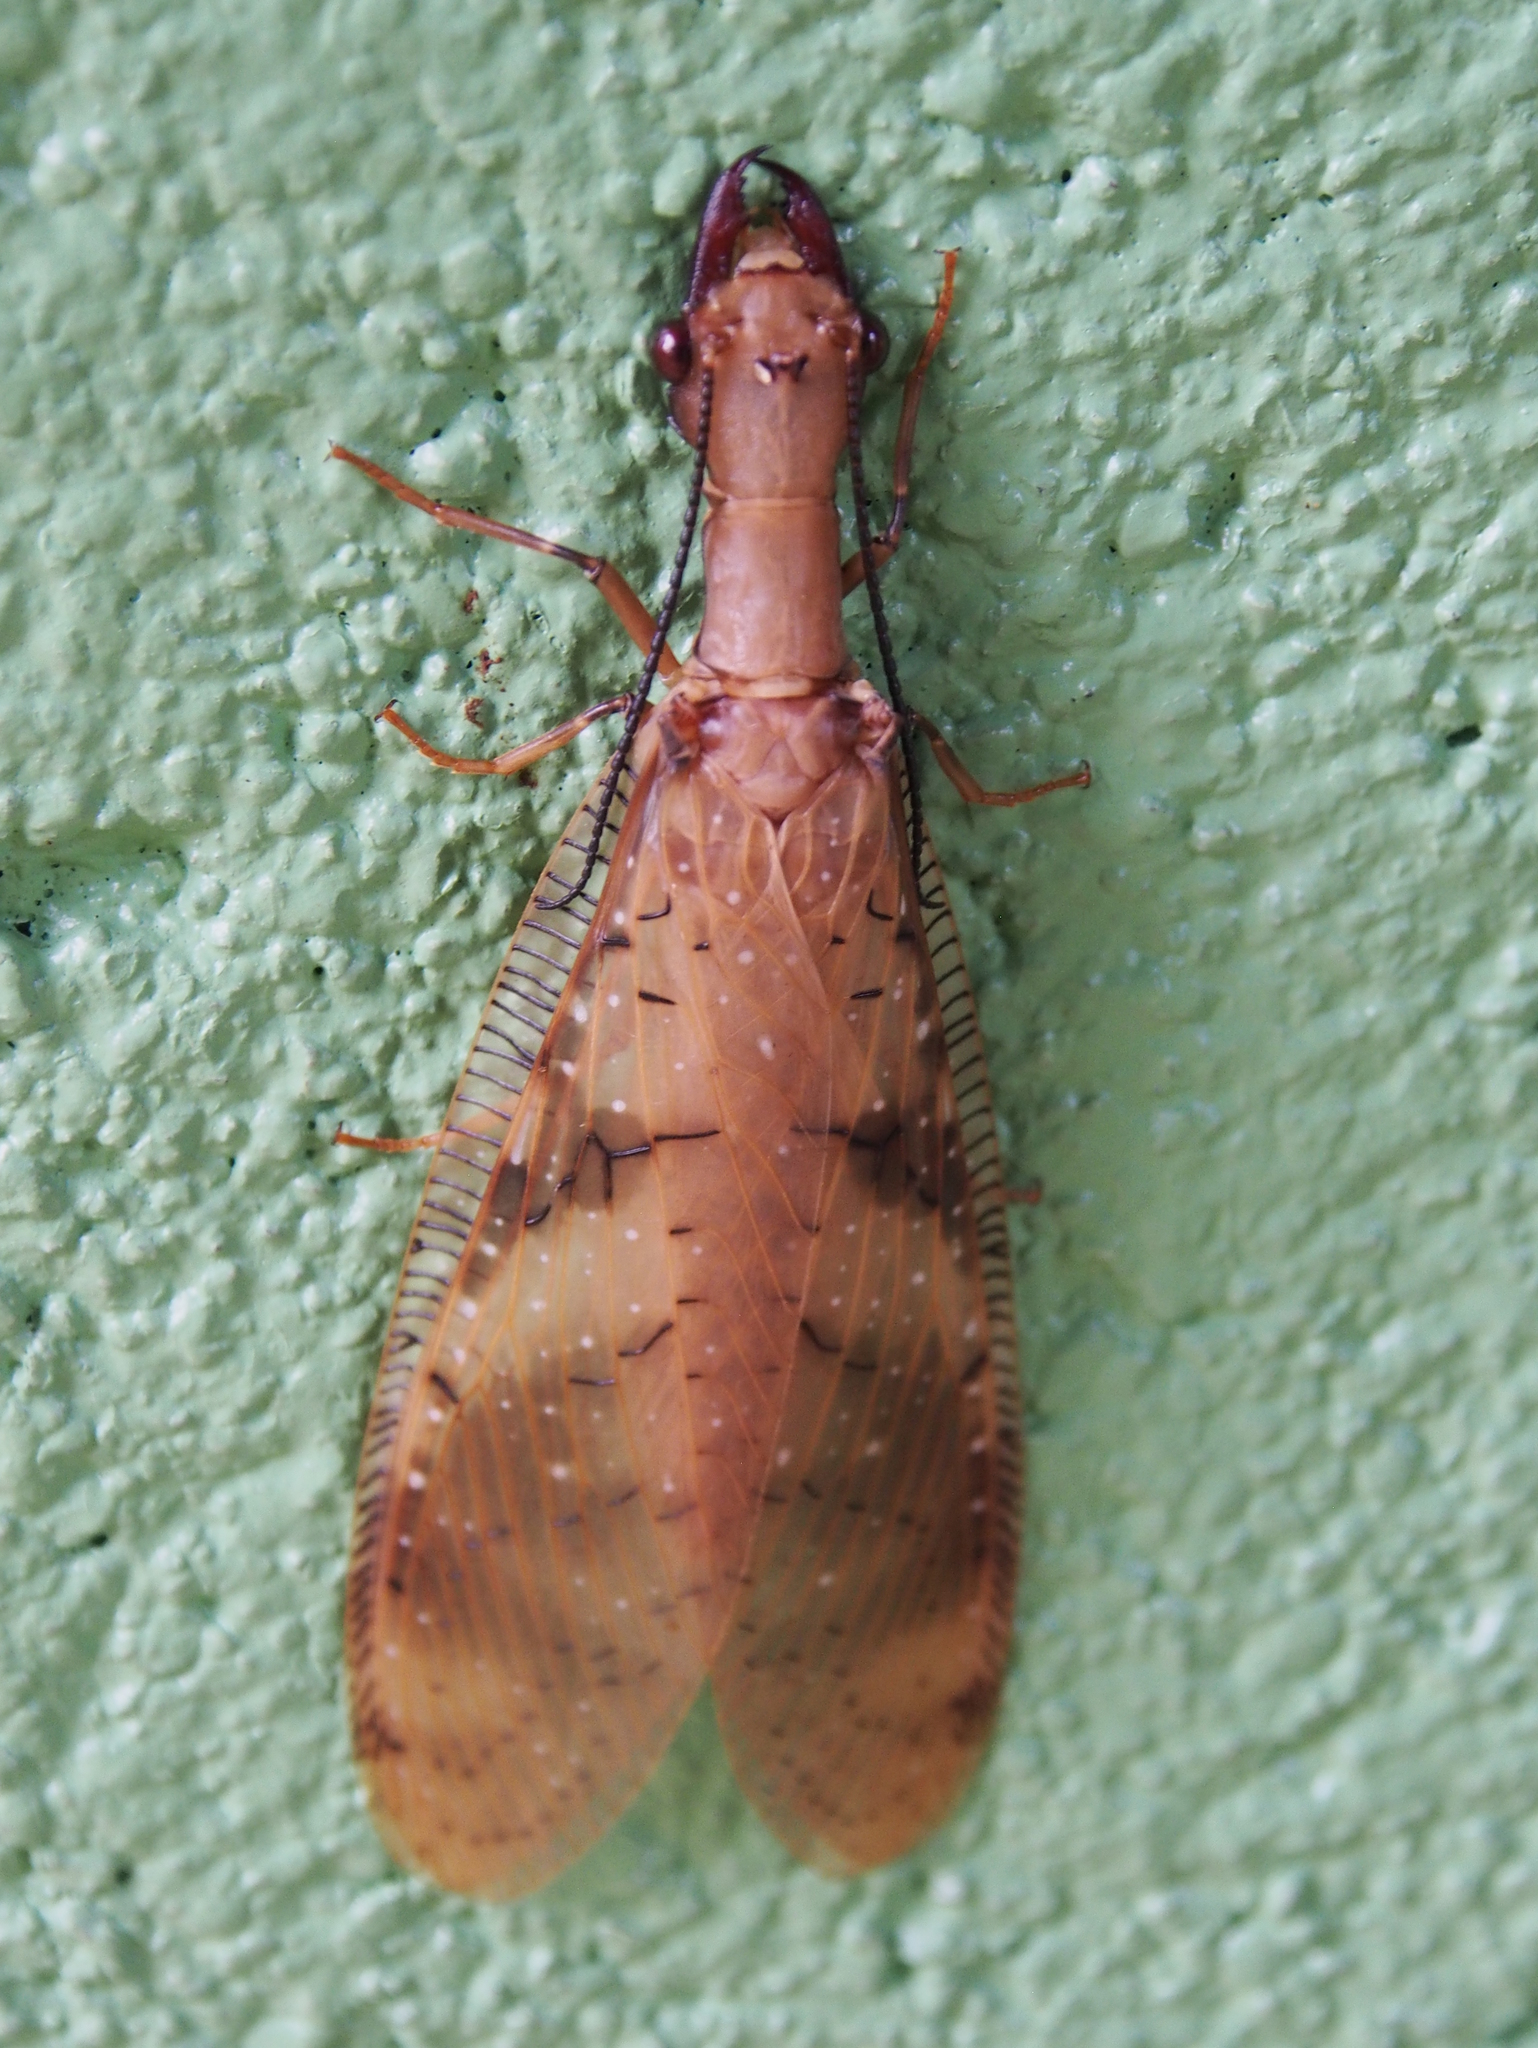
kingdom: Animalia
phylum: Arthropoda
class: Insecta
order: Megaloptera
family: Corydalidae
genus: Corydalus
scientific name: Corydalus flavicornis
